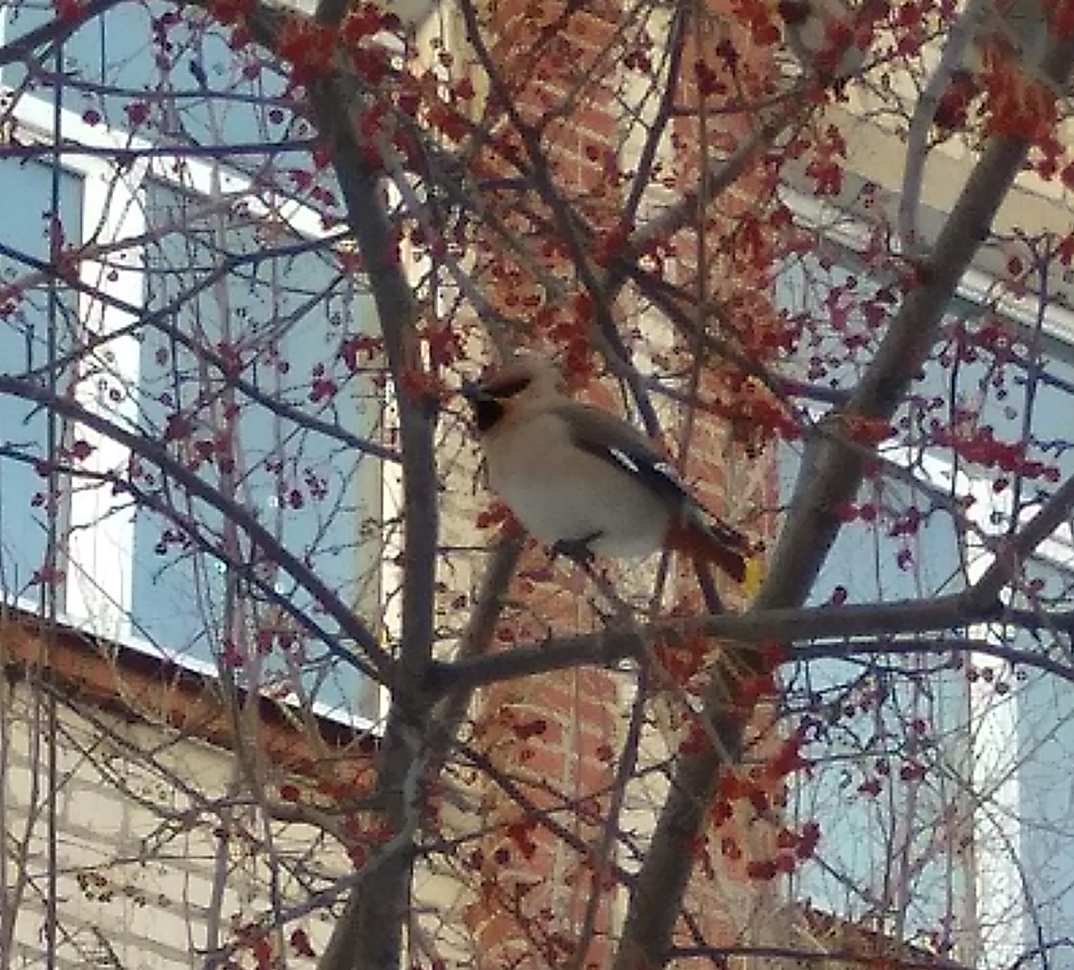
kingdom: Animalia
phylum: Chordata
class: Aves
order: Passeriformes
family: Bombycillidae
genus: Bombycilla
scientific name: Bombycilla garrulus
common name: Bohemian waxwing
